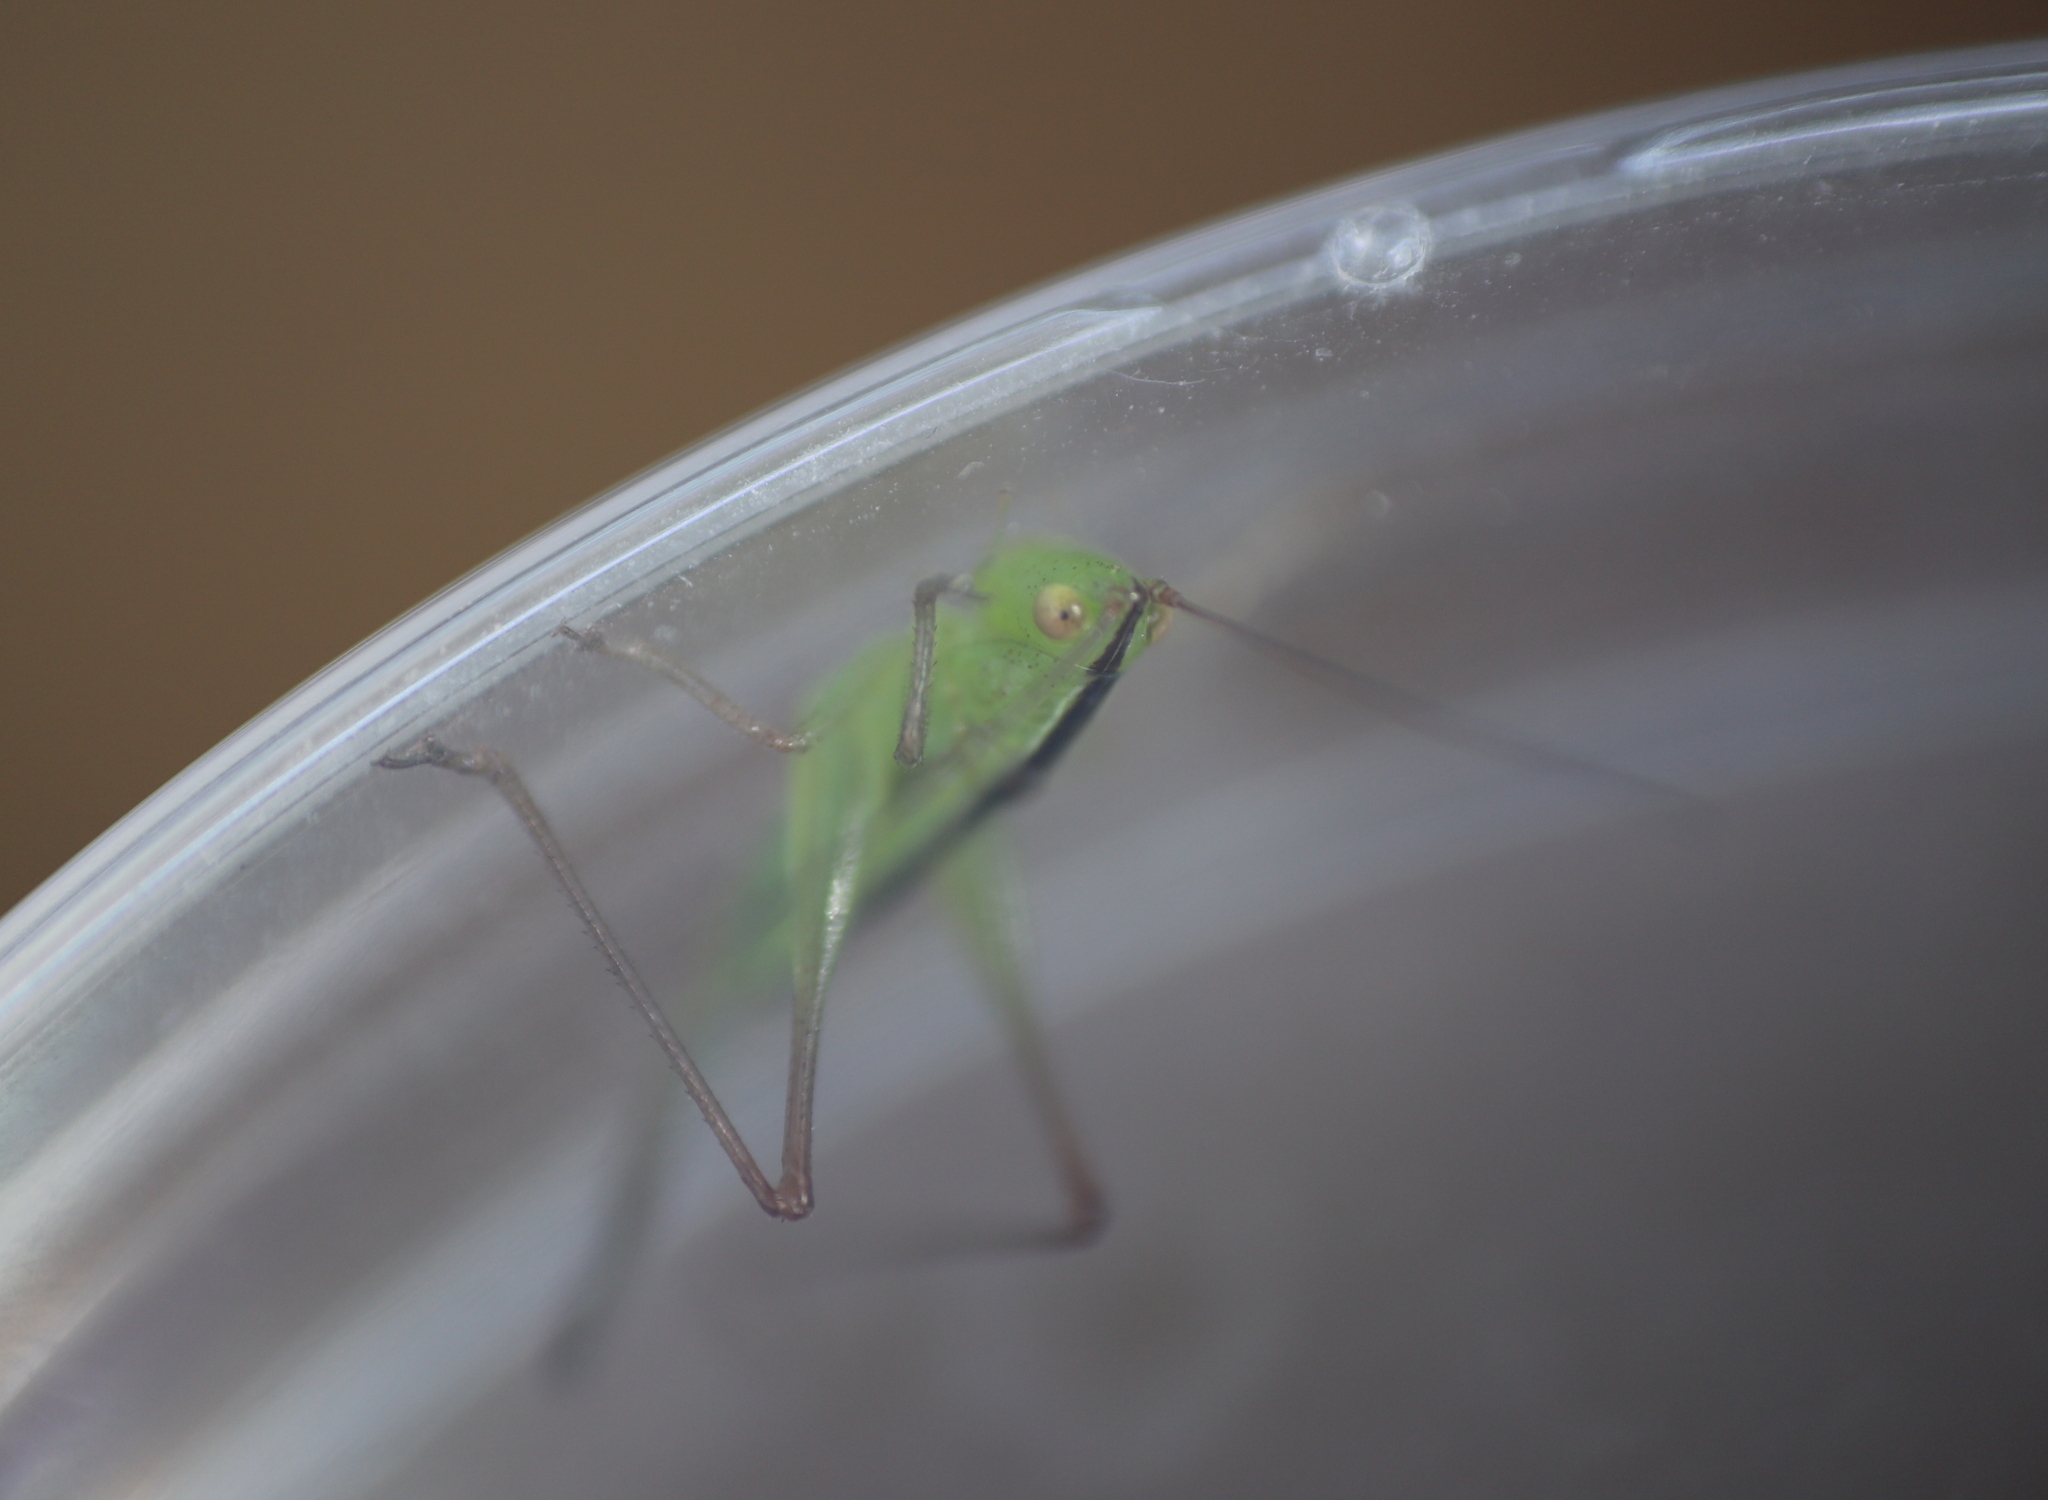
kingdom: Animalia
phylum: Arthropoda
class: Insecta
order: Orthoptera
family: Tettigoniidae
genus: Conocephalus
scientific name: Conocephalus fasciatus
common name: Slender meadow katydid
